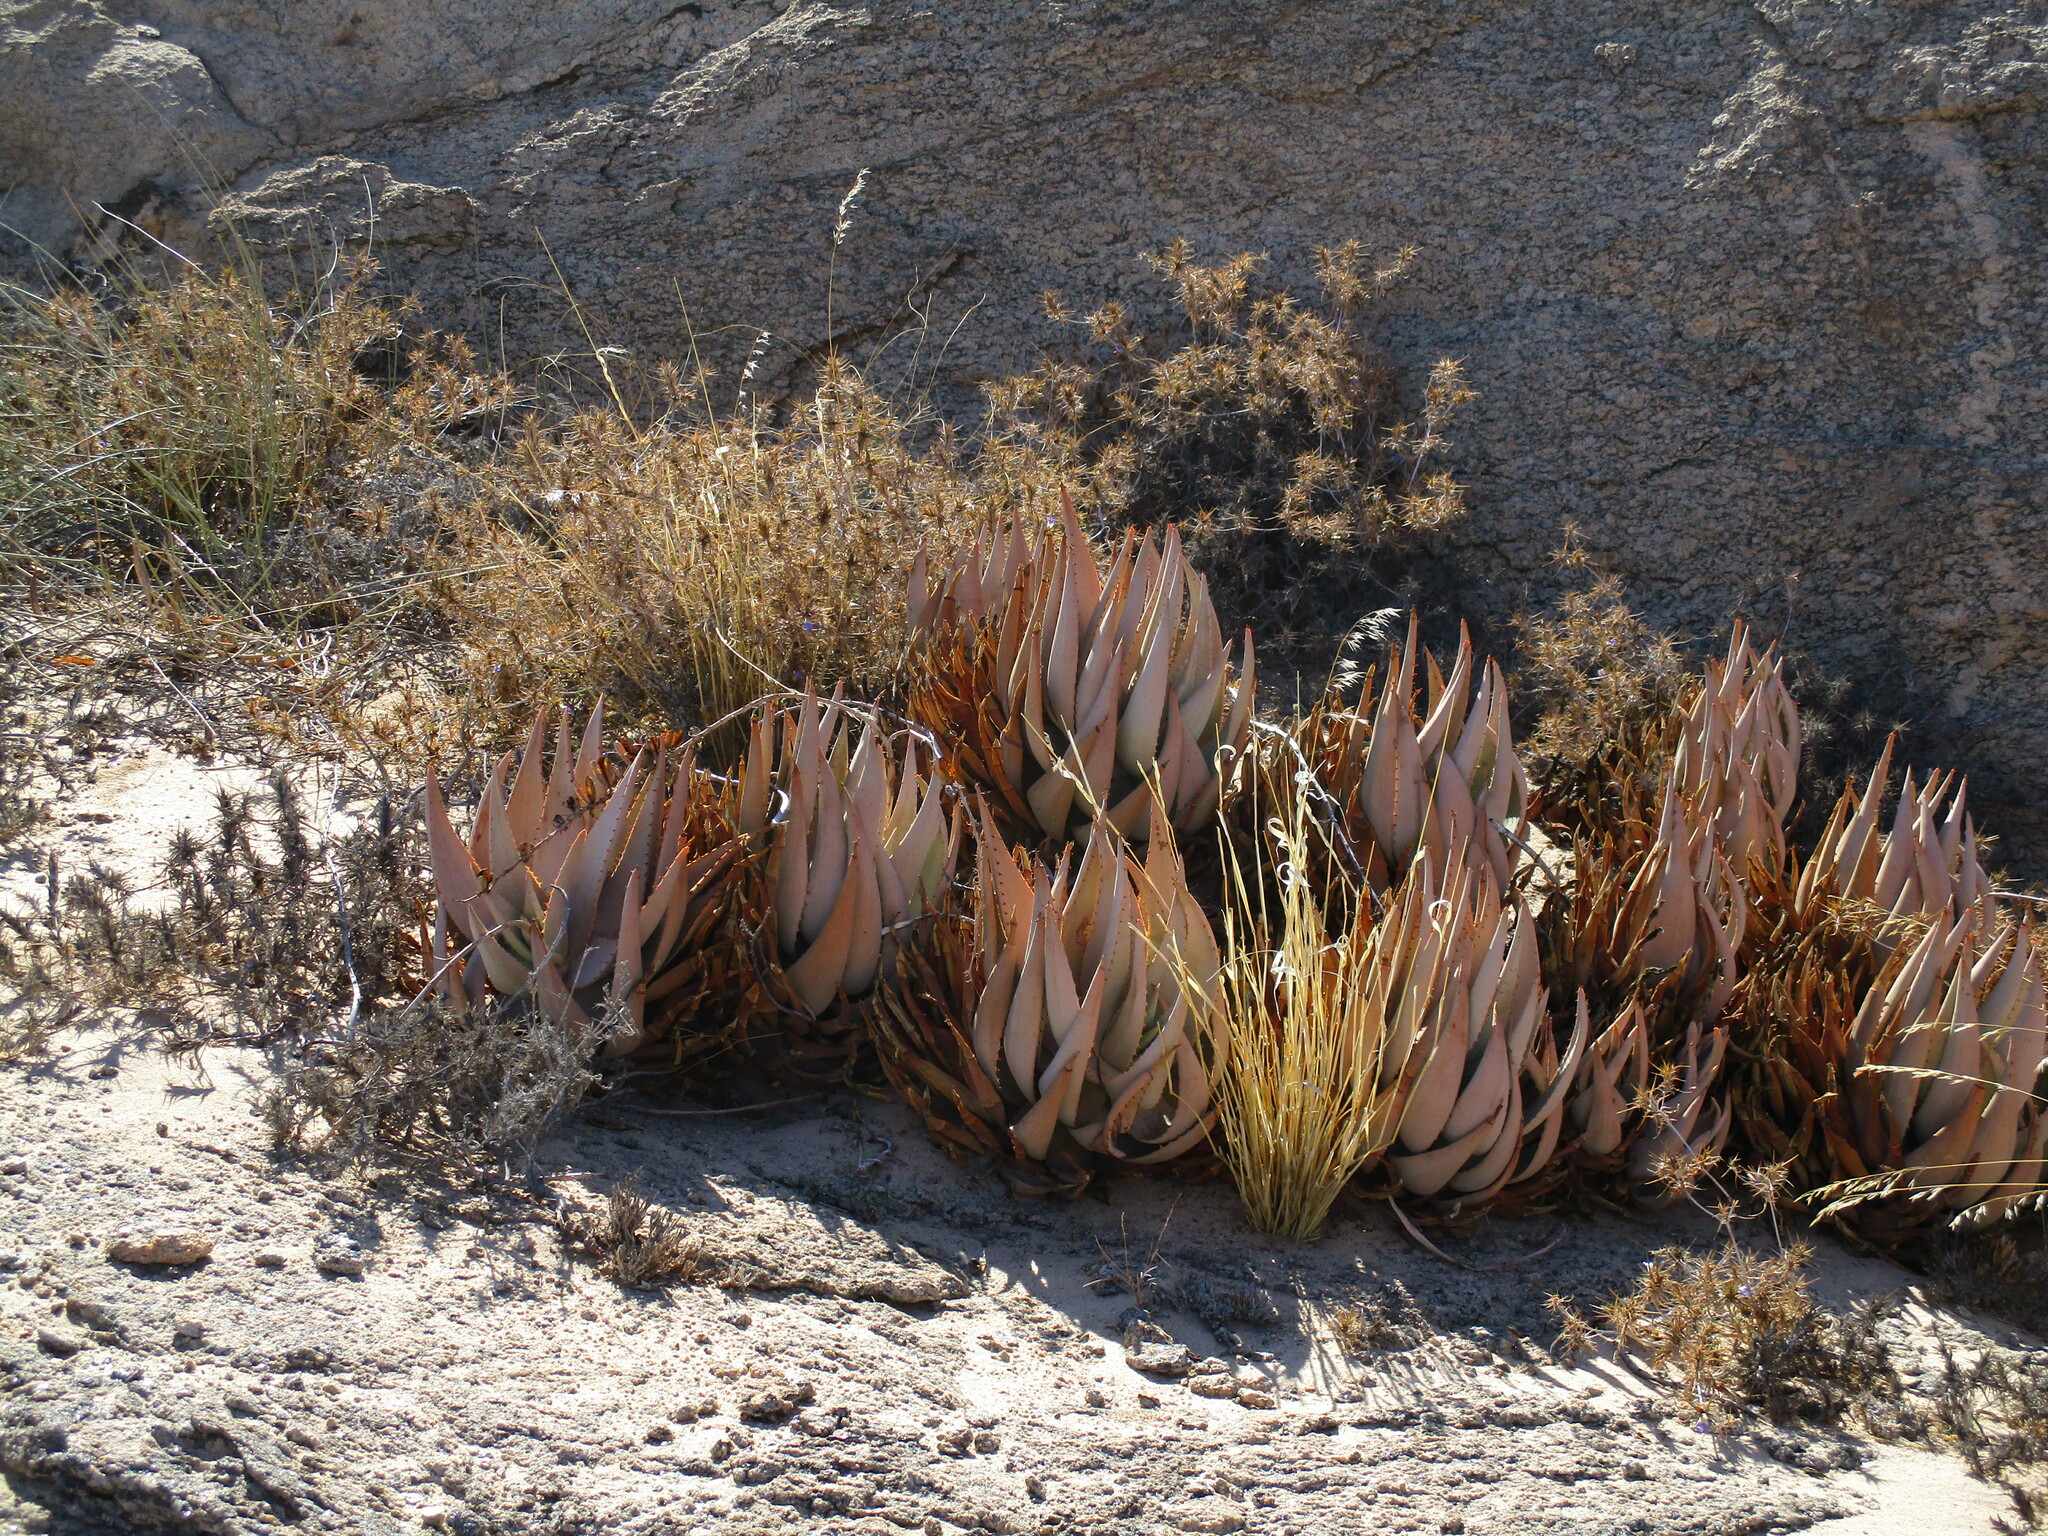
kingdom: Plantae
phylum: Tracheophyta
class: Liliopsida
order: Asparagales
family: Asphodelaceae
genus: Aloe
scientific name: Aloe asperifolia
